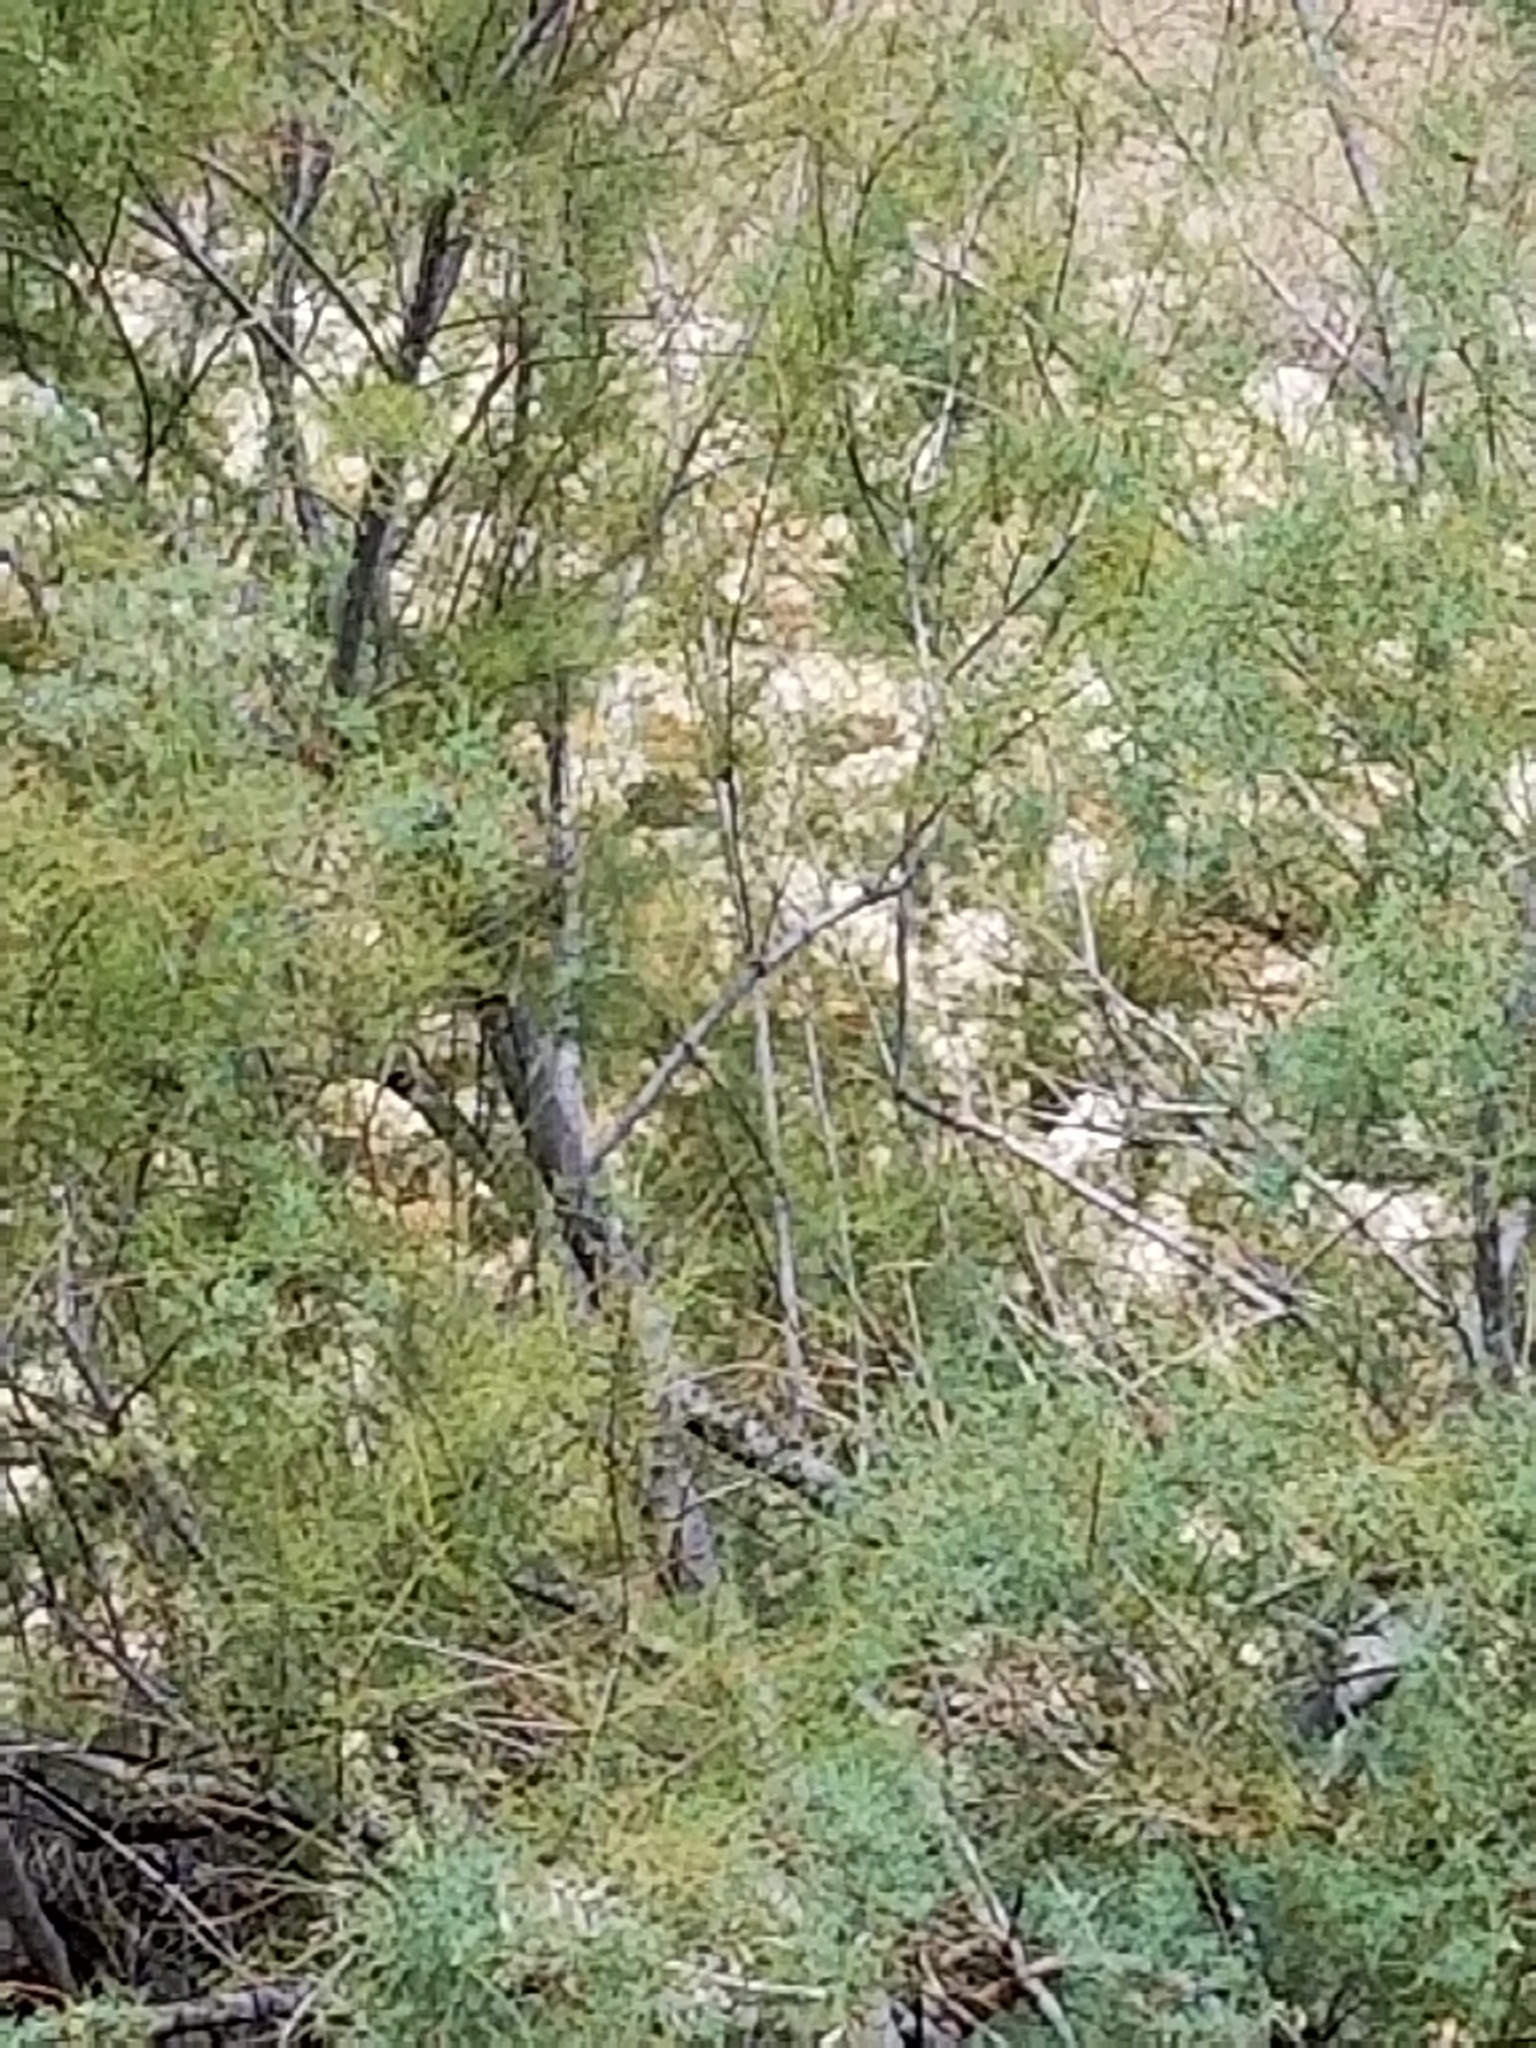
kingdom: Plantae
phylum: Tracheophyta
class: Magnoliopsida
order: Caryophyllales
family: Tamaricaceae
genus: Tamarix
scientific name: Tamarix
